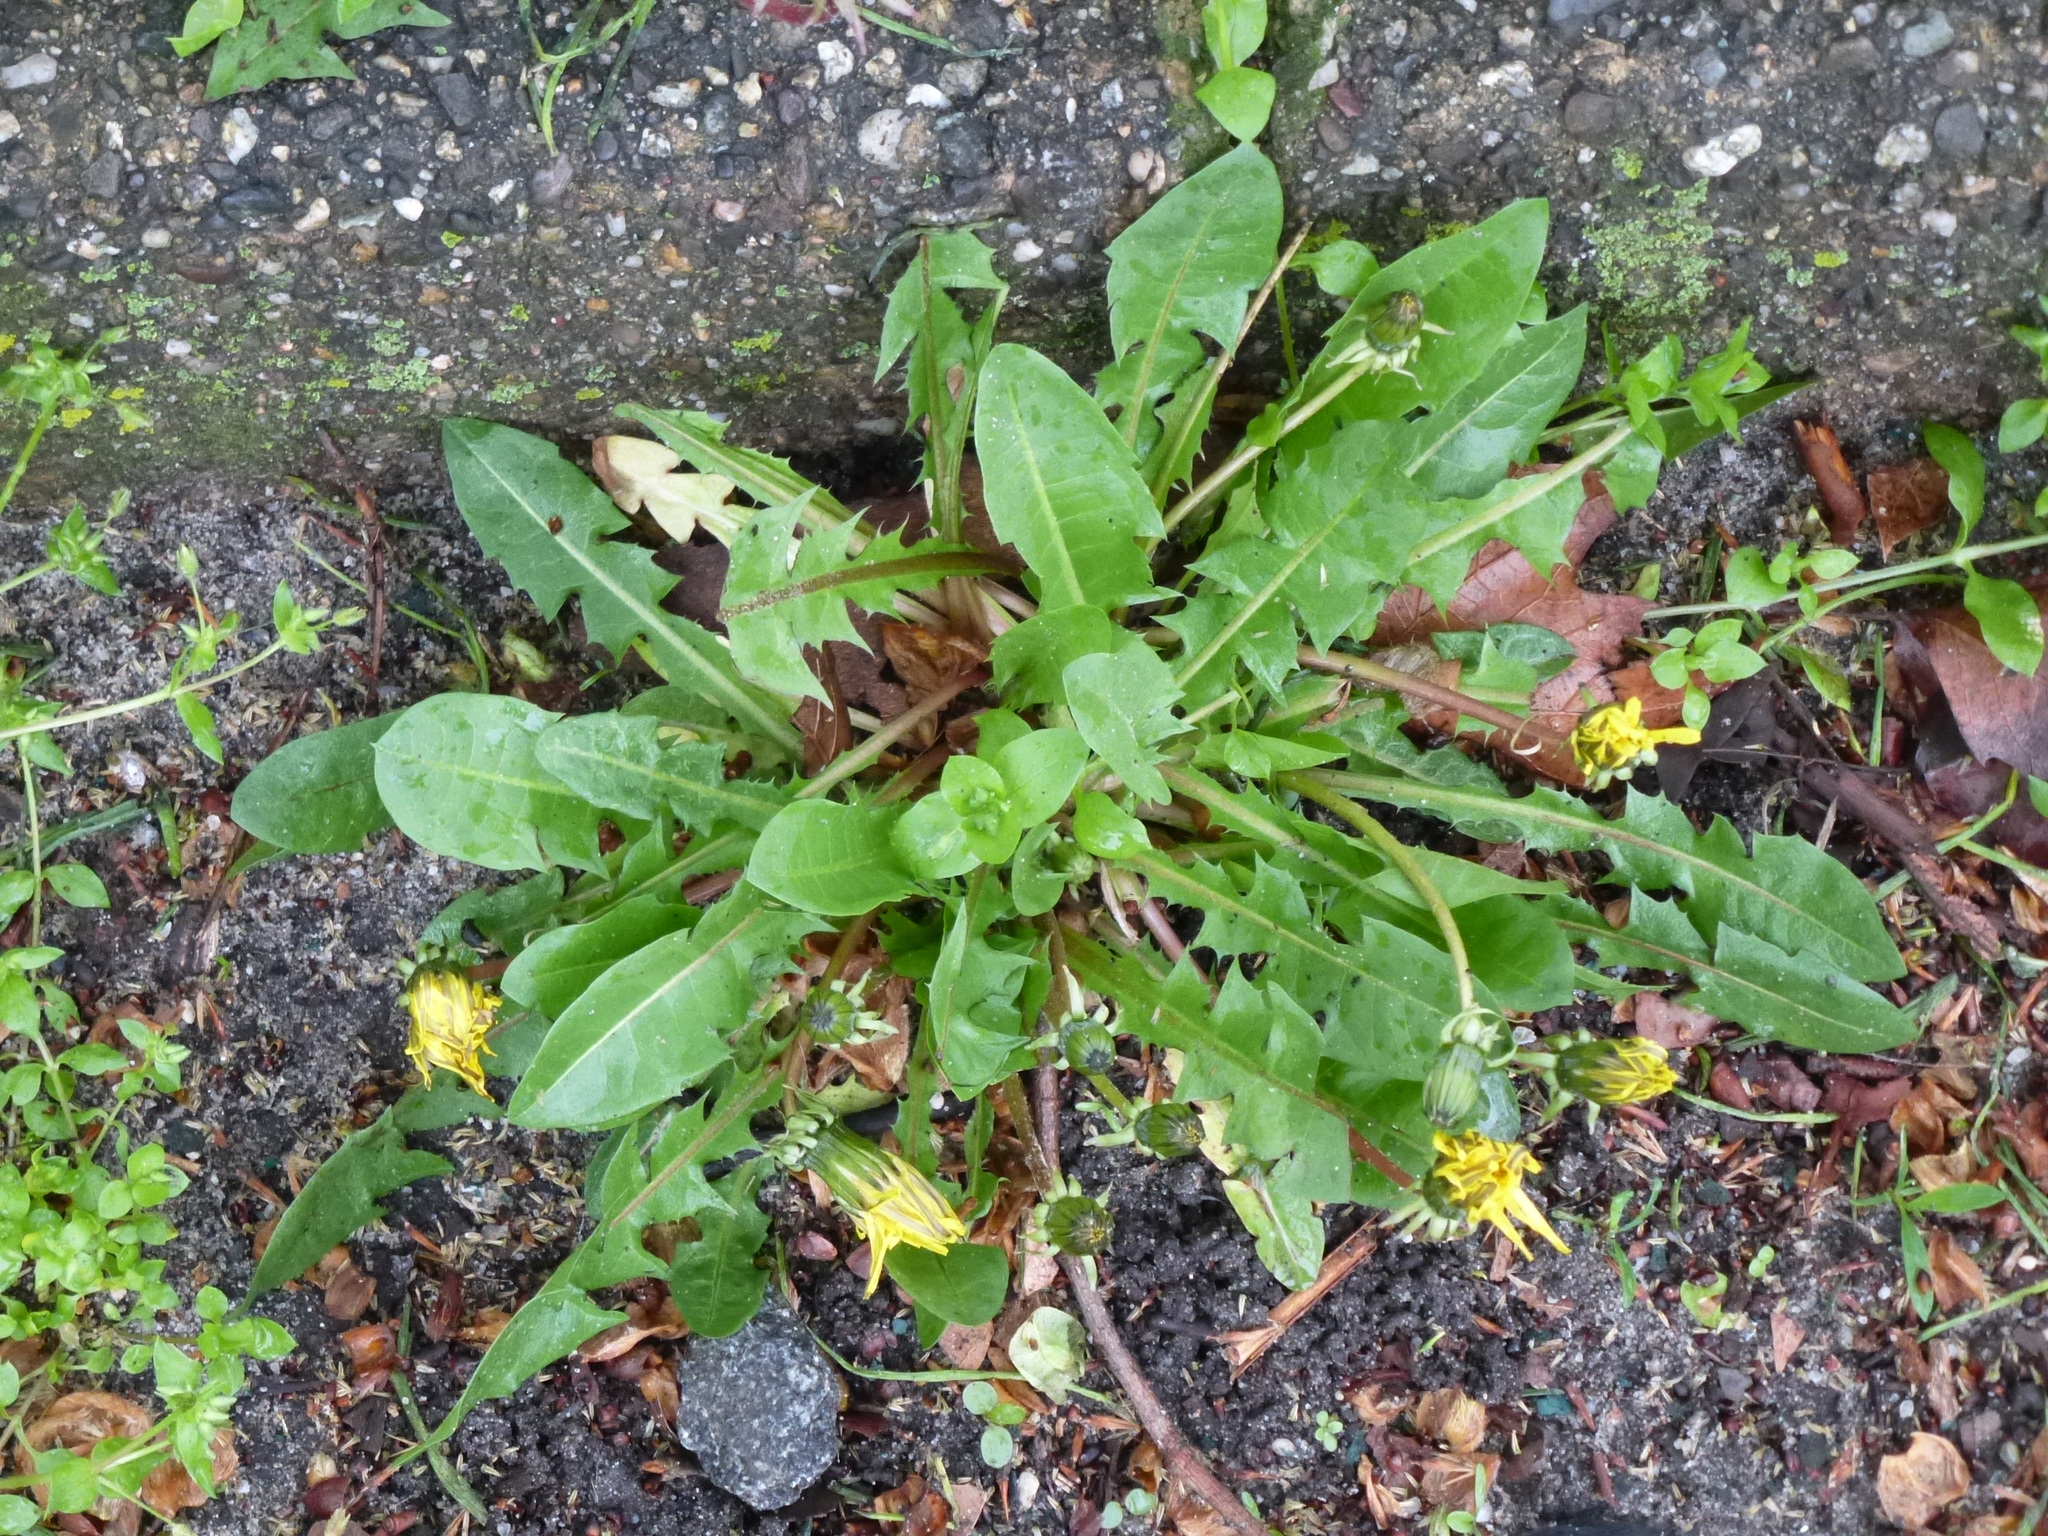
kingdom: Plantae
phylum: Tracheophyta
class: Magnoliopsida
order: Asterales
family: Asteraceae
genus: Taraxacum
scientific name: Taraxacum officinale
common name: Common dandelion
